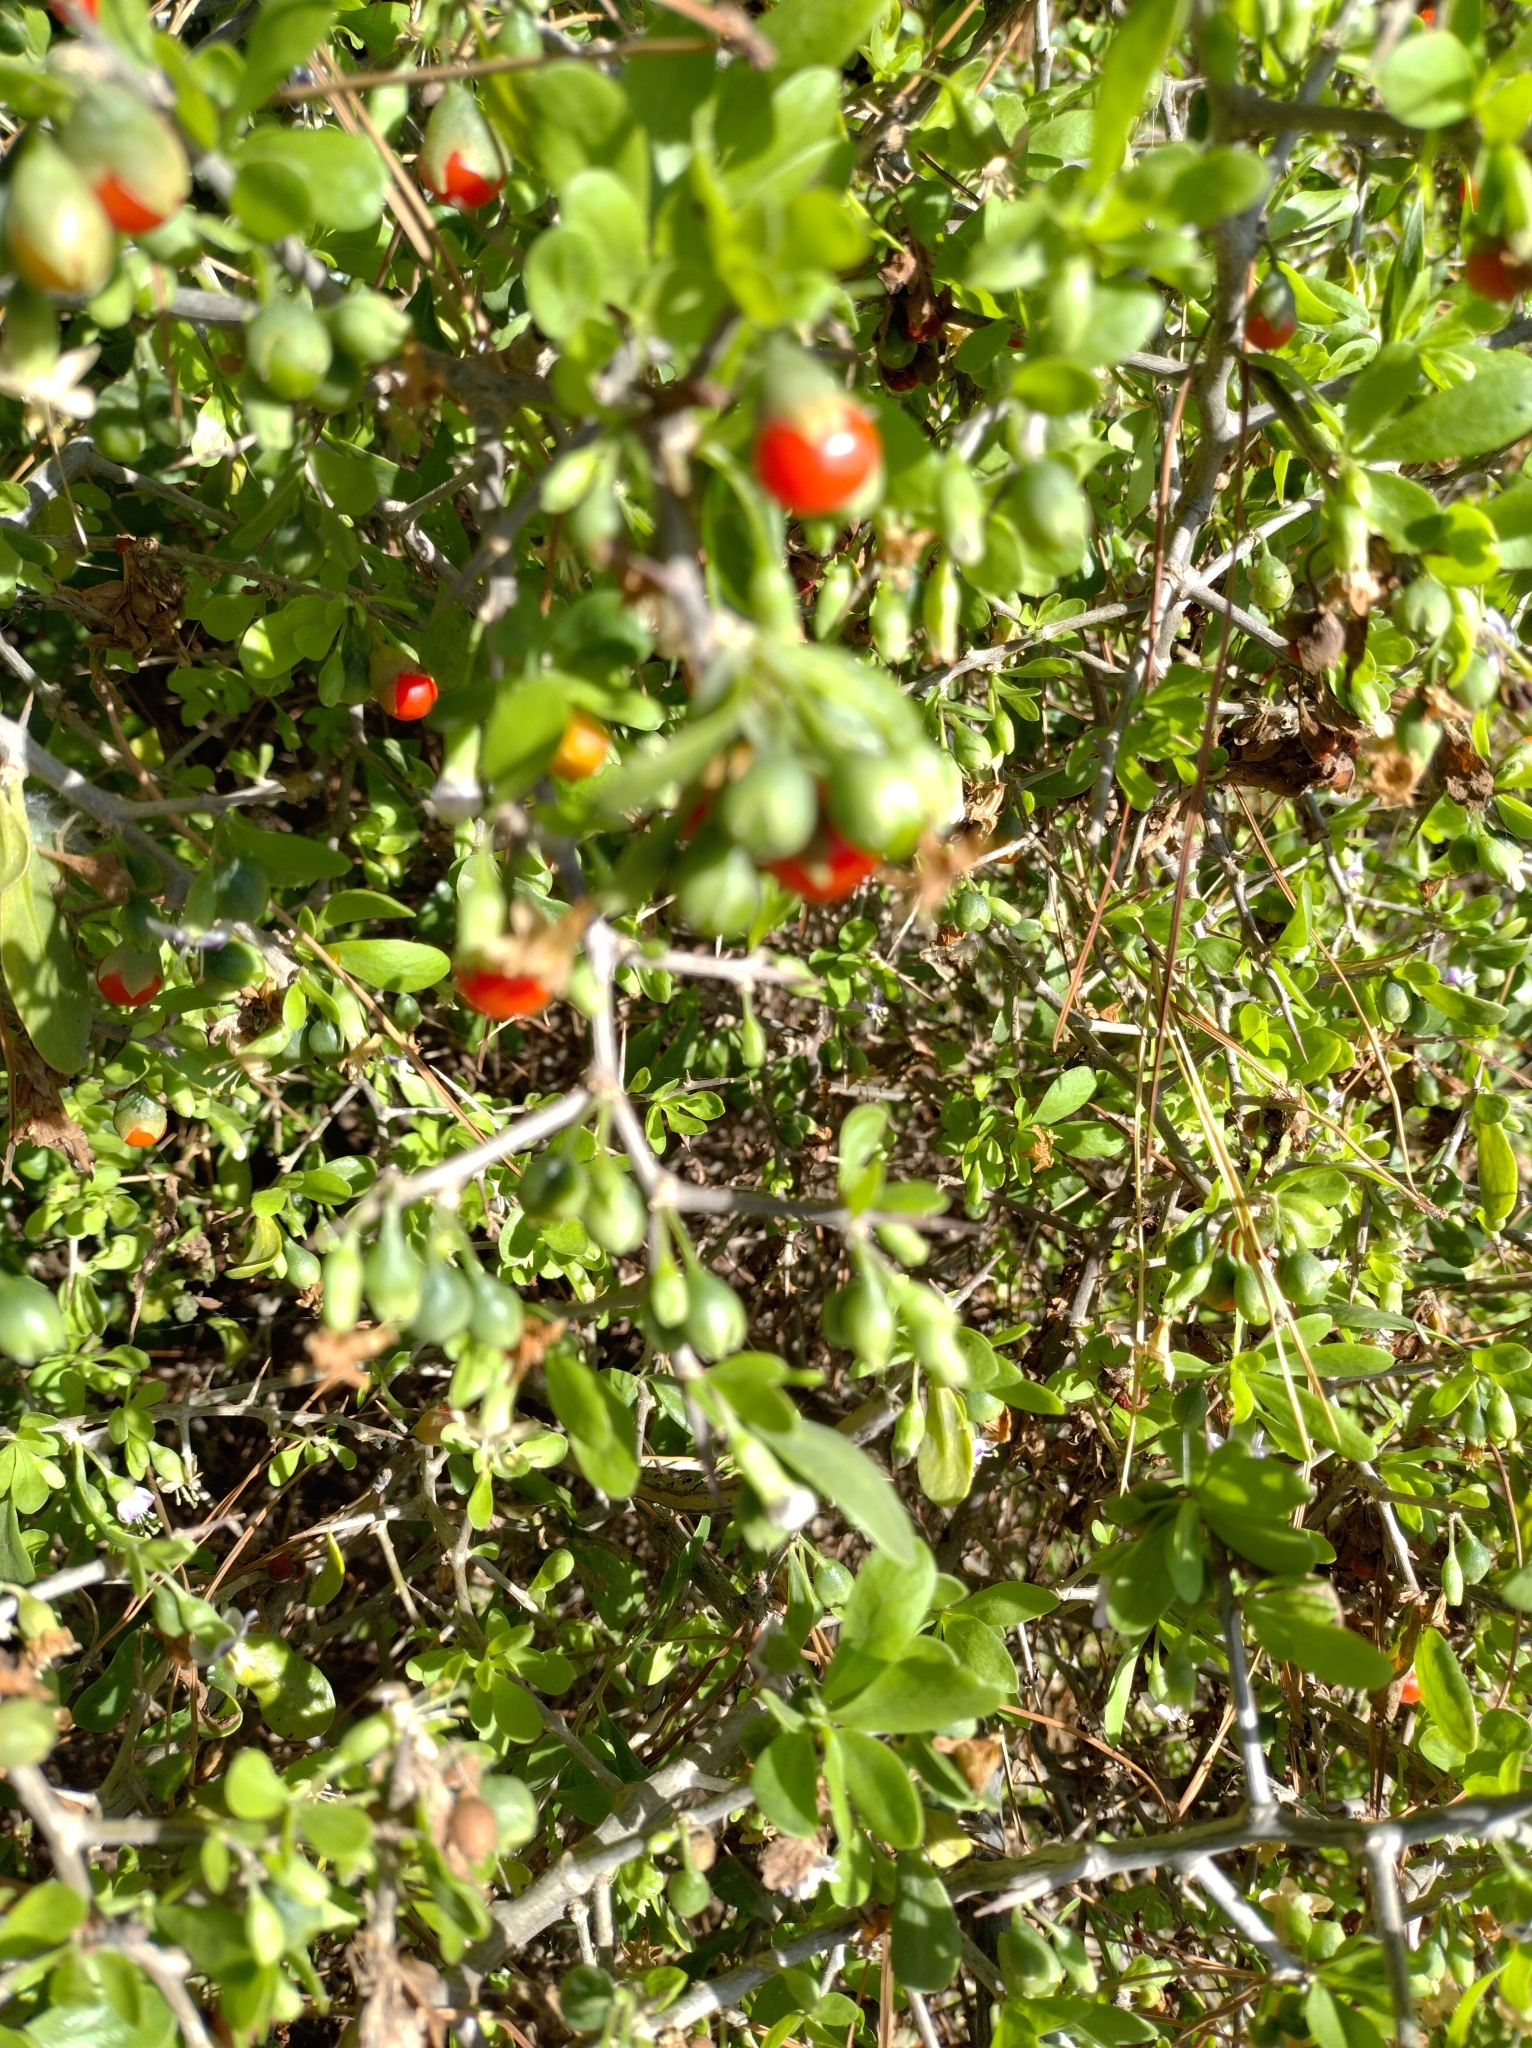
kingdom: Plantae
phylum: Tracheophyta
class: Magnoliopsida
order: Solanales
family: Solanaceae
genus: Lycium
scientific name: Lycium ferocissimum
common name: African boxthorn
